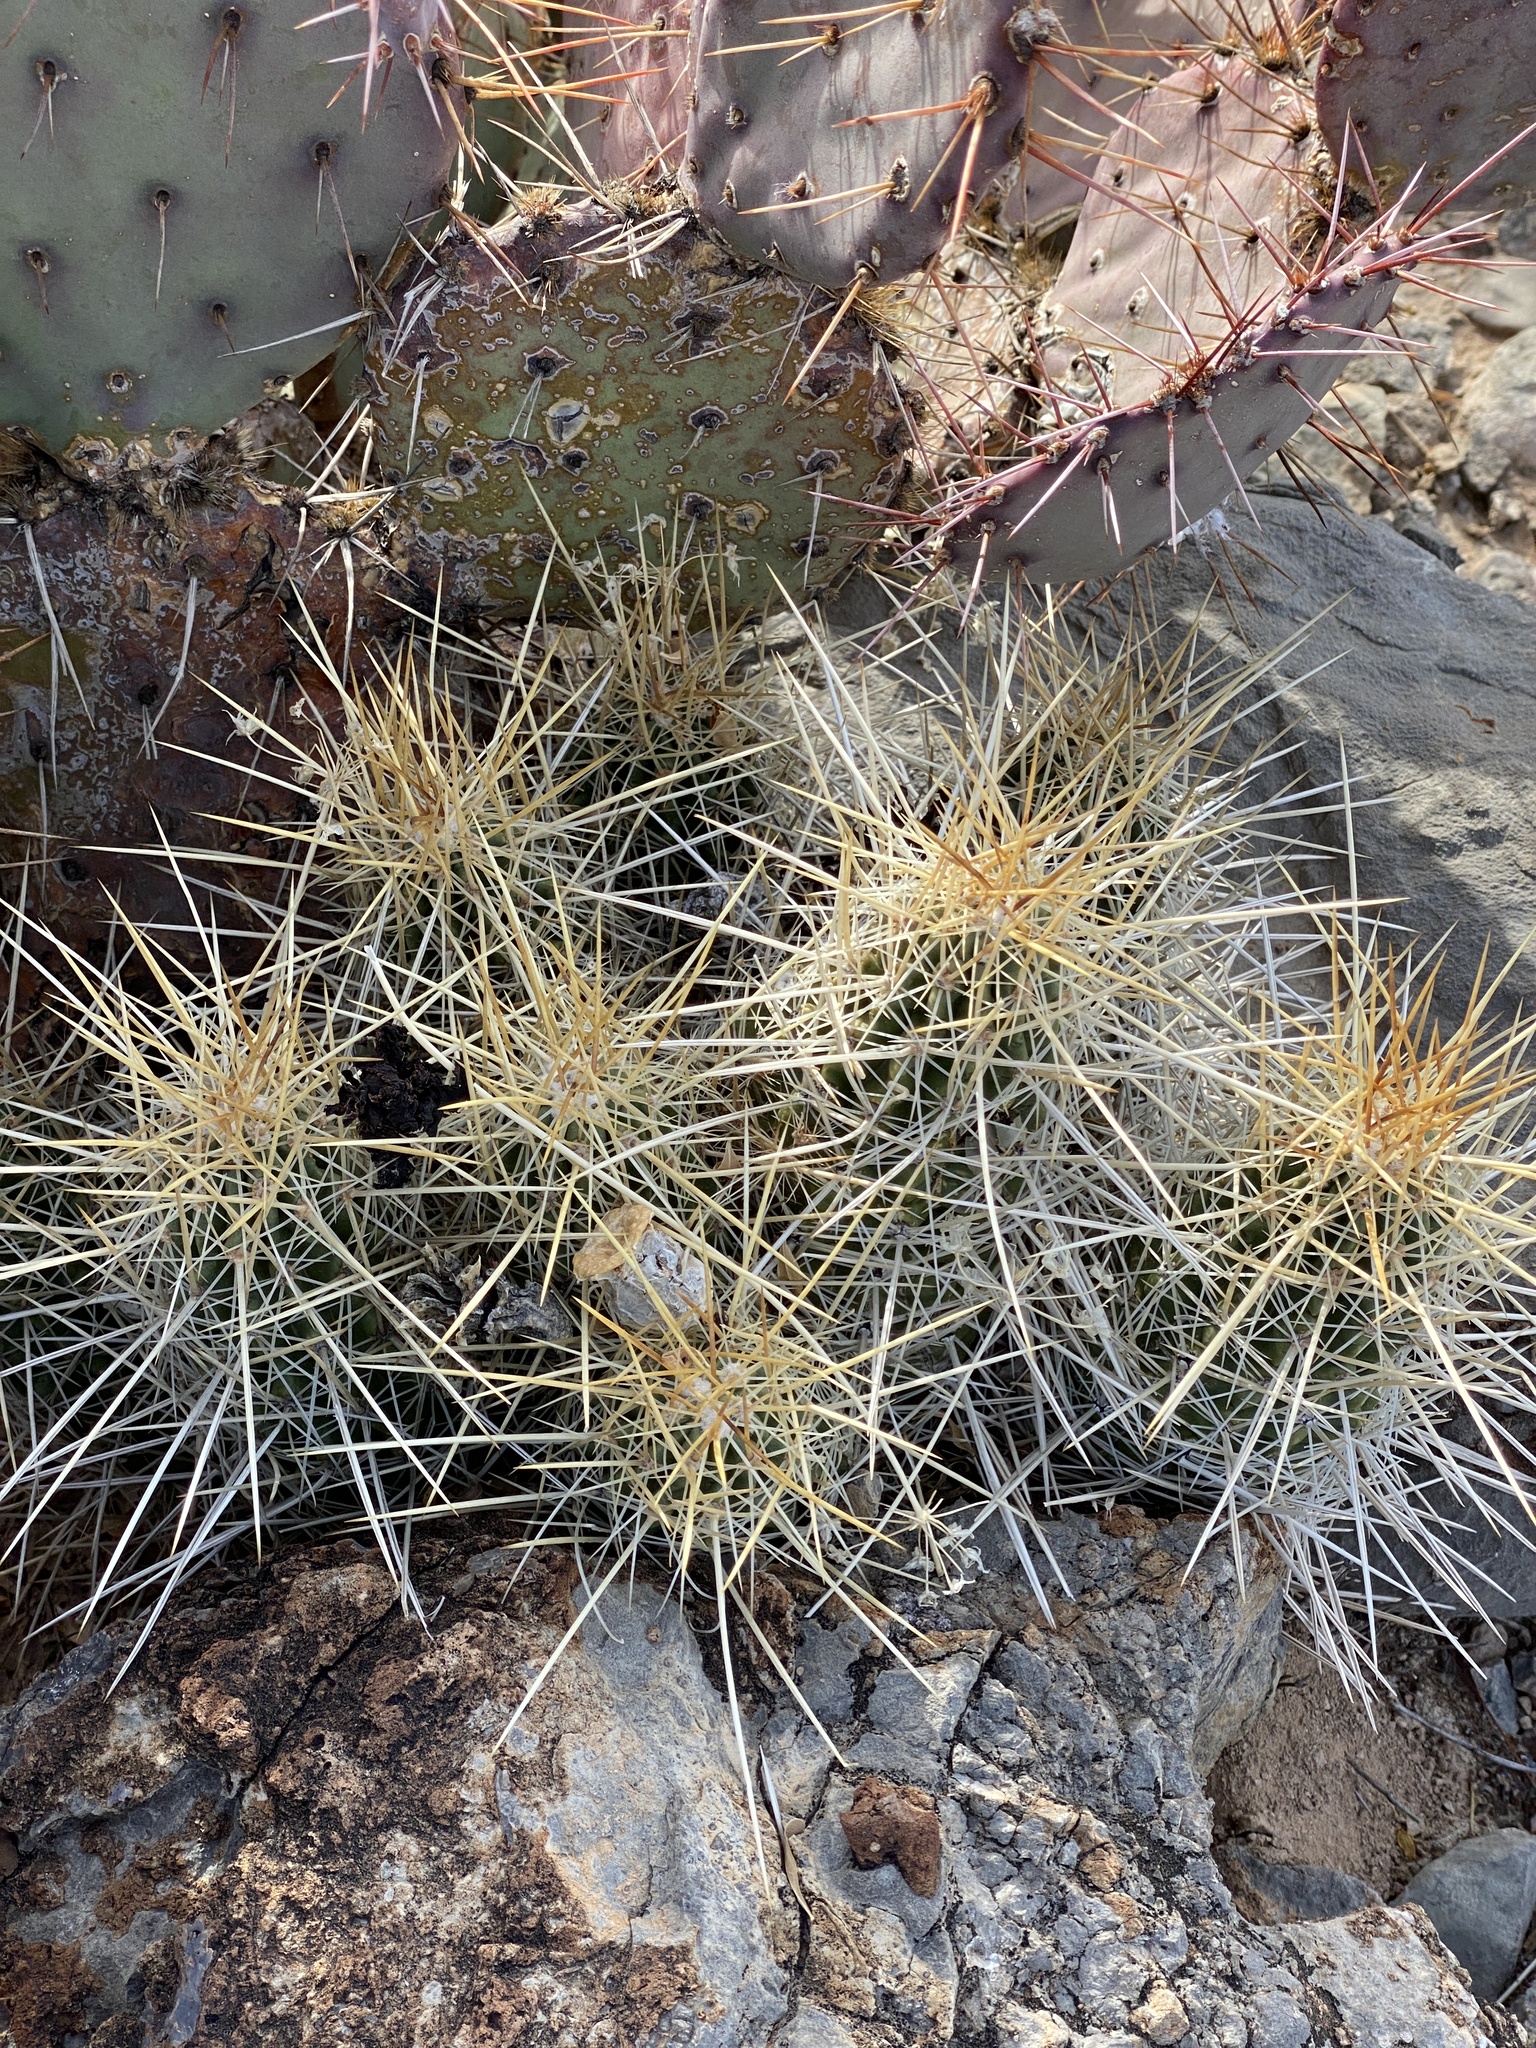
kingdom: Plantae
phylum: Tracheophyta
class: Magnoliopsida
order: Caryophyllales
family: Cactaceae
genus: Echinocereus
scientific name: Echinocereus stramineus
